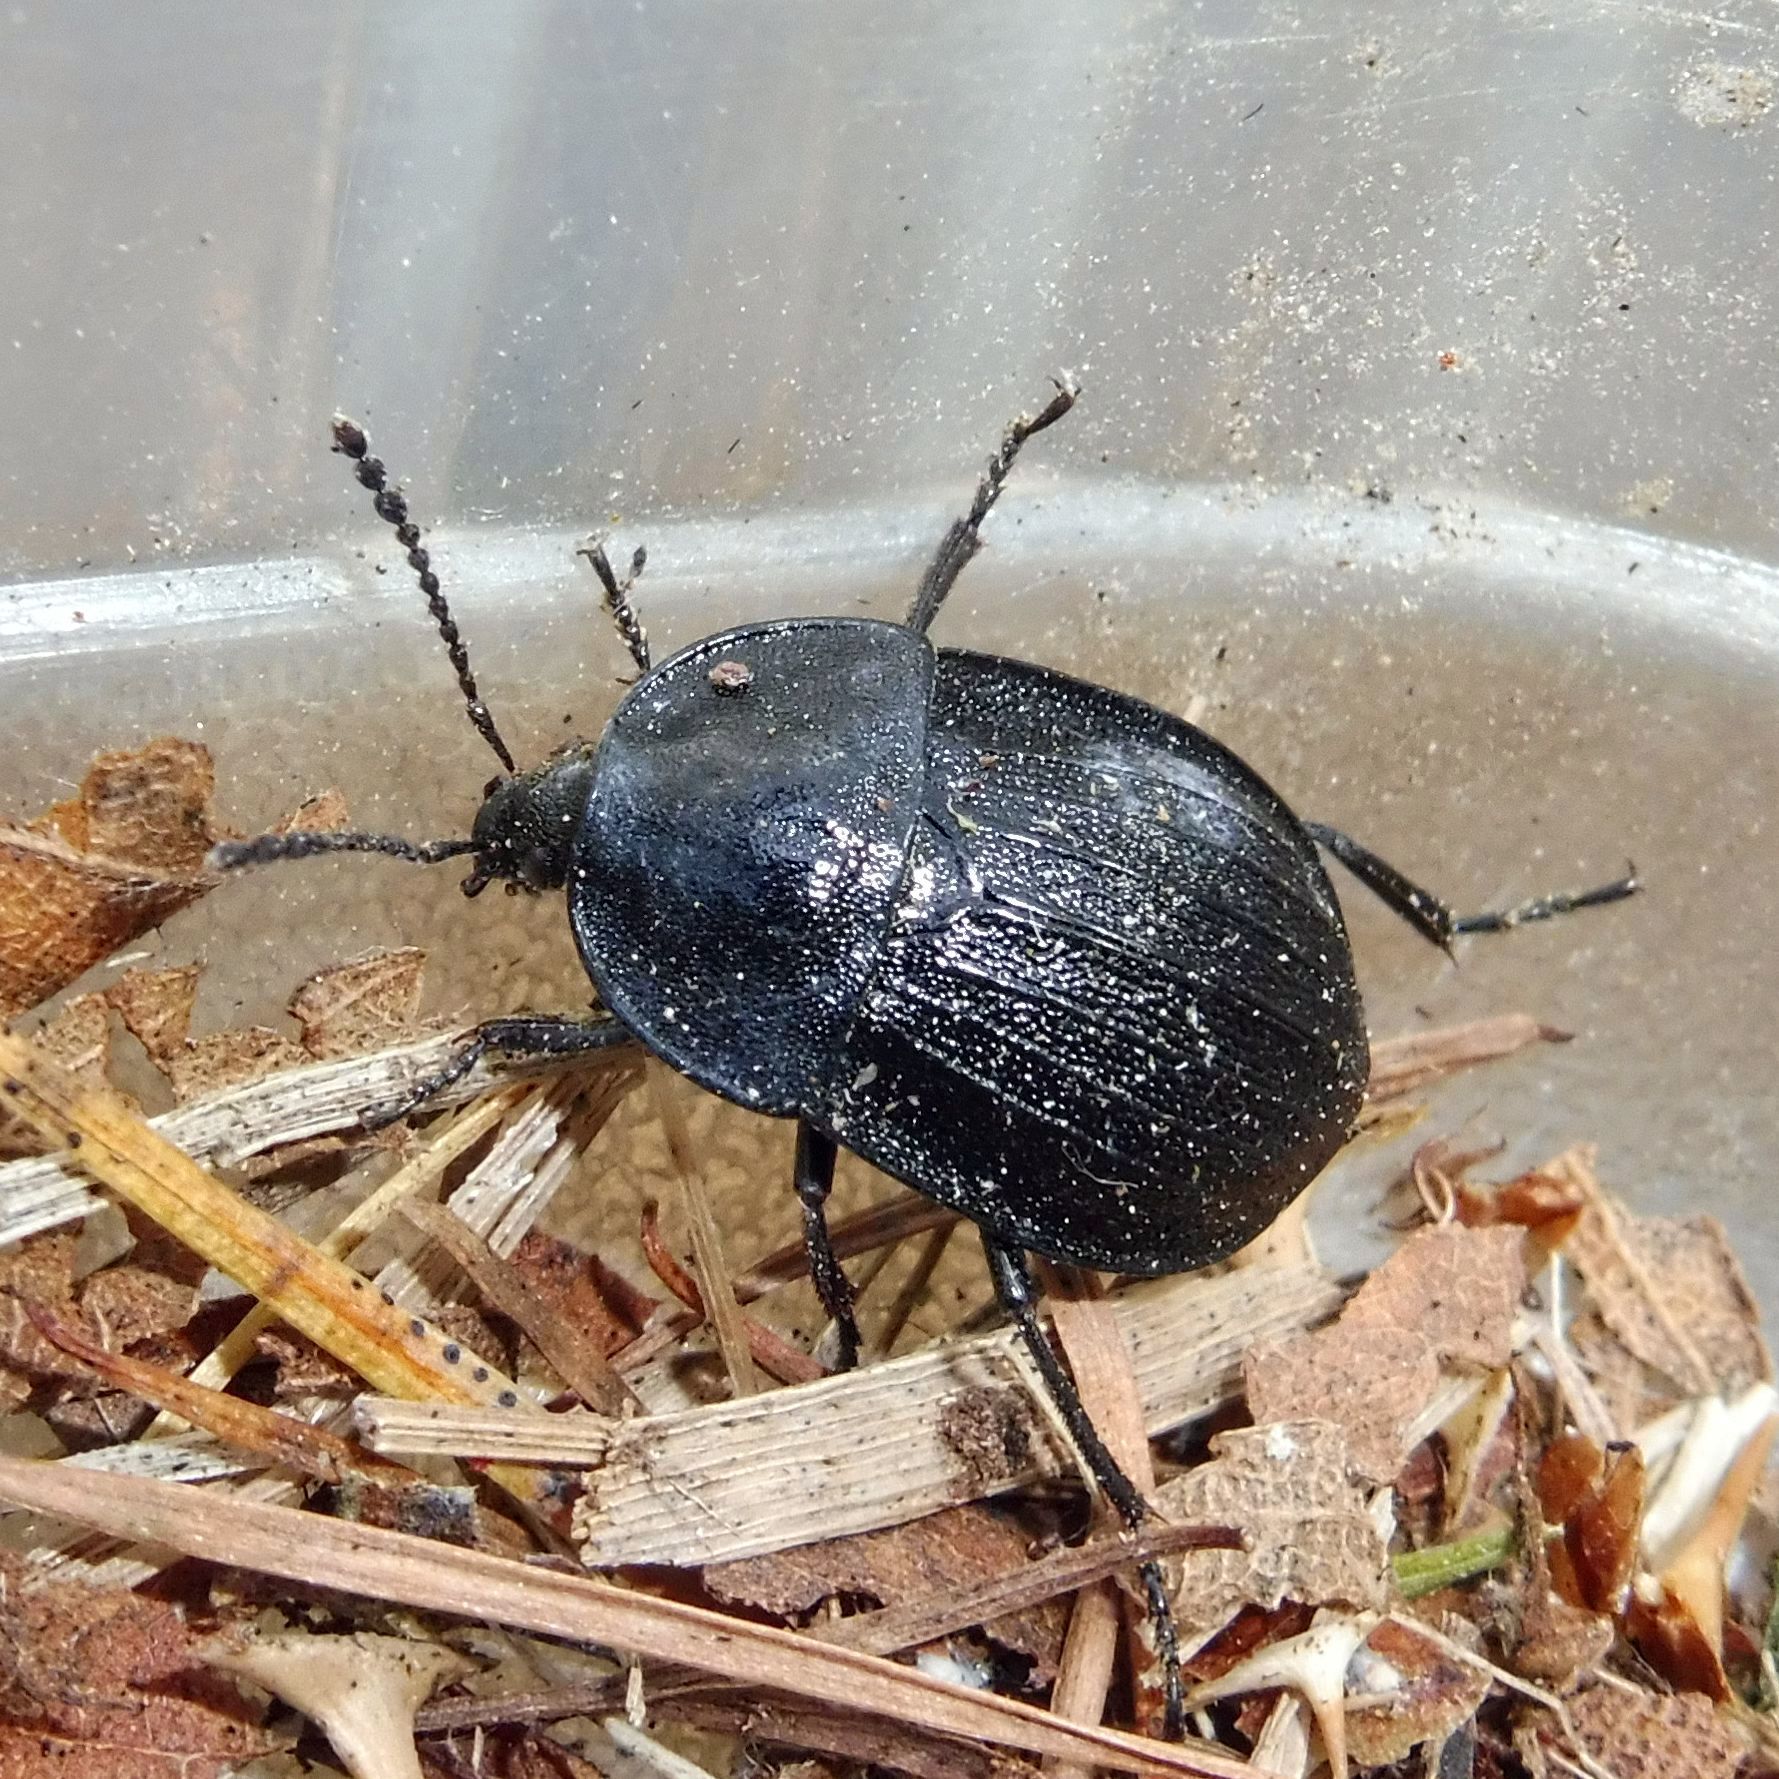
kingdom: Animalia
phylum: Arthropoda
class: Insecta
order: Coleoptera
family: Staphylinidae
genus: Silpha
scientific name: Silpha atrata
